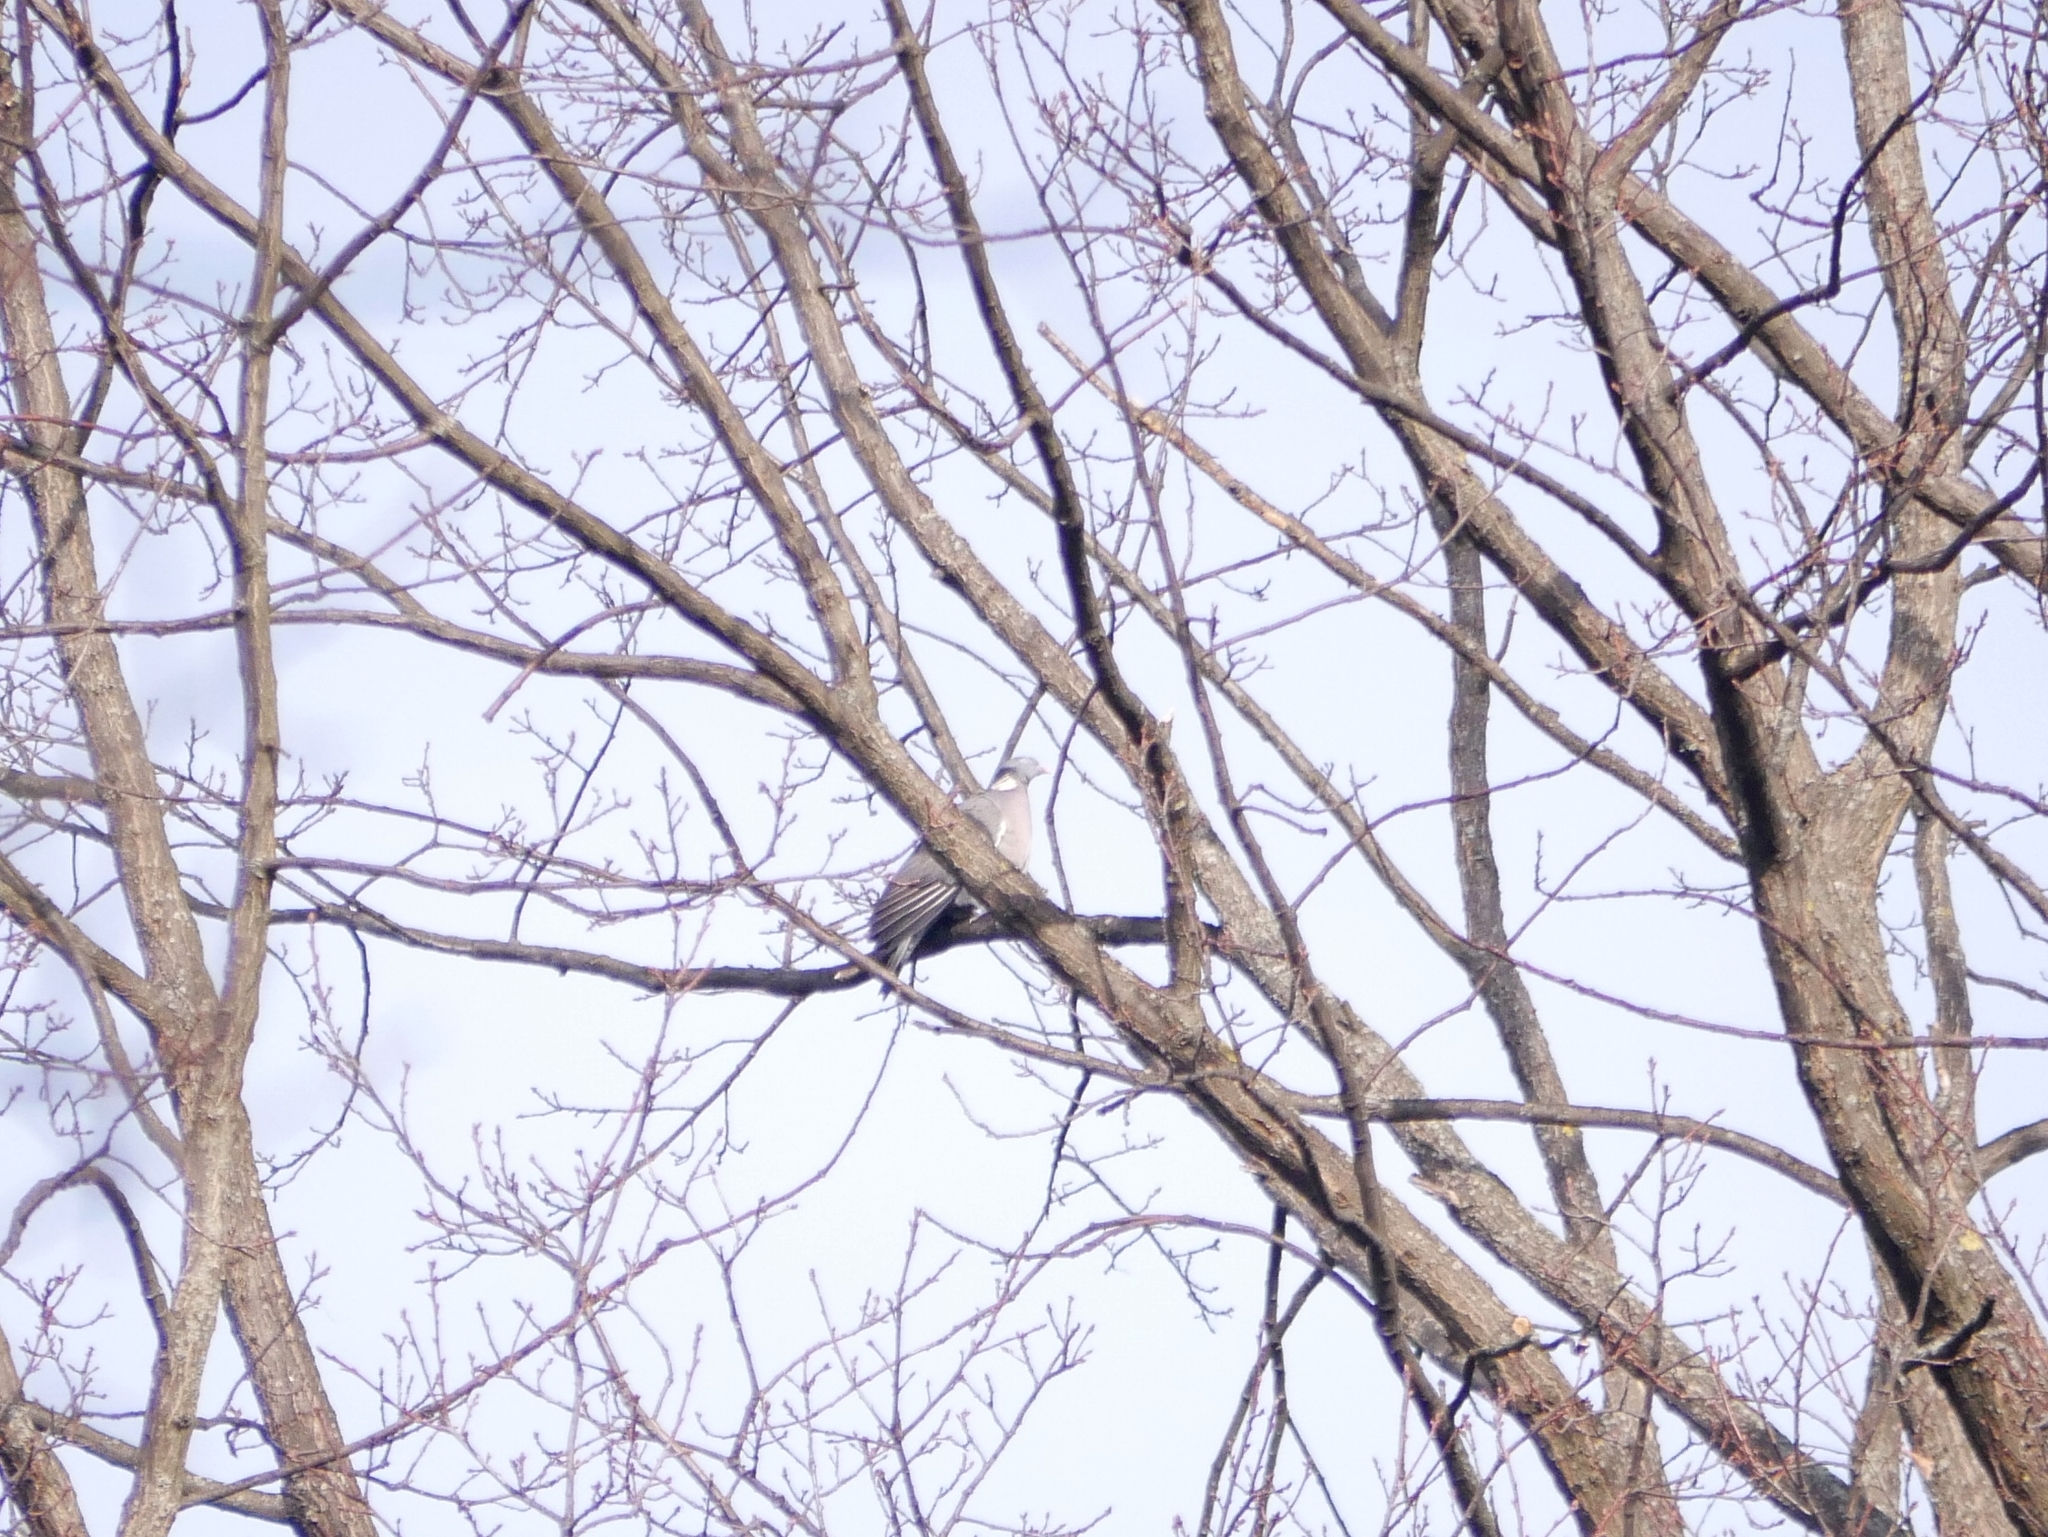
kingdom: Animalia
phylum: Chordata
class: Aves
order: Columbiformes
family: Columbidae
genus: Columba
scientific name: Columba palumbus
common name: Common wood pigeon
